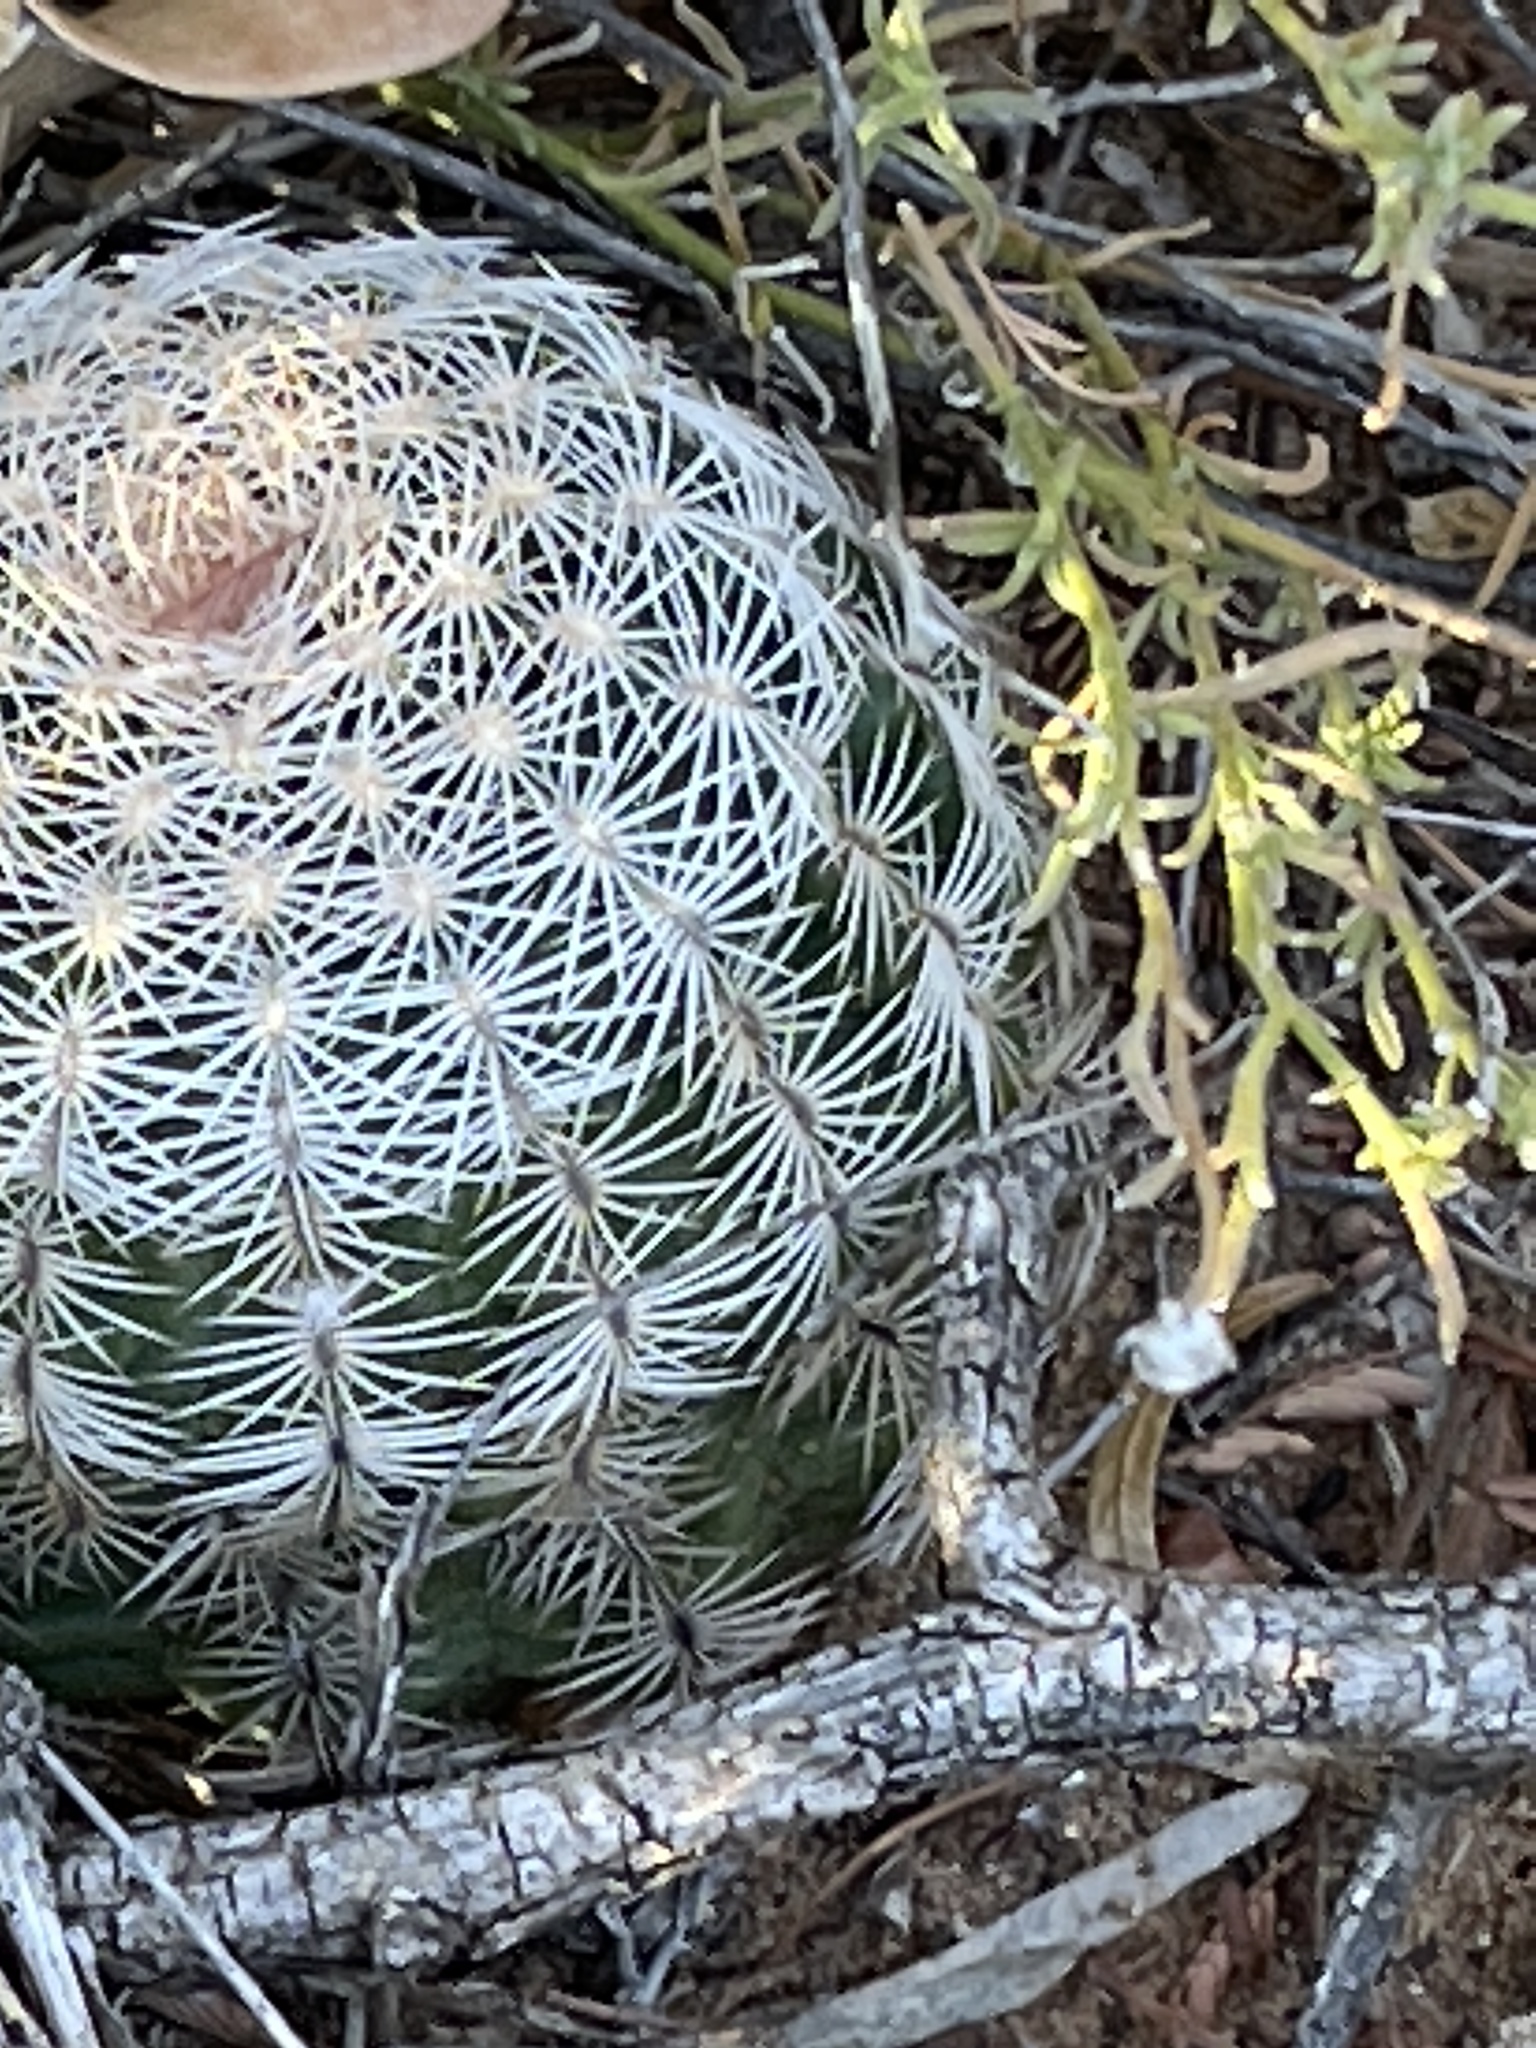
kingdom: Plantae
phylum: Tracheophyta
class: Magnoliopsida
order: Caryophyllales
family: Cactaceae
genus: Echinocereus
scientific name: Echinocereus reichenbachii
